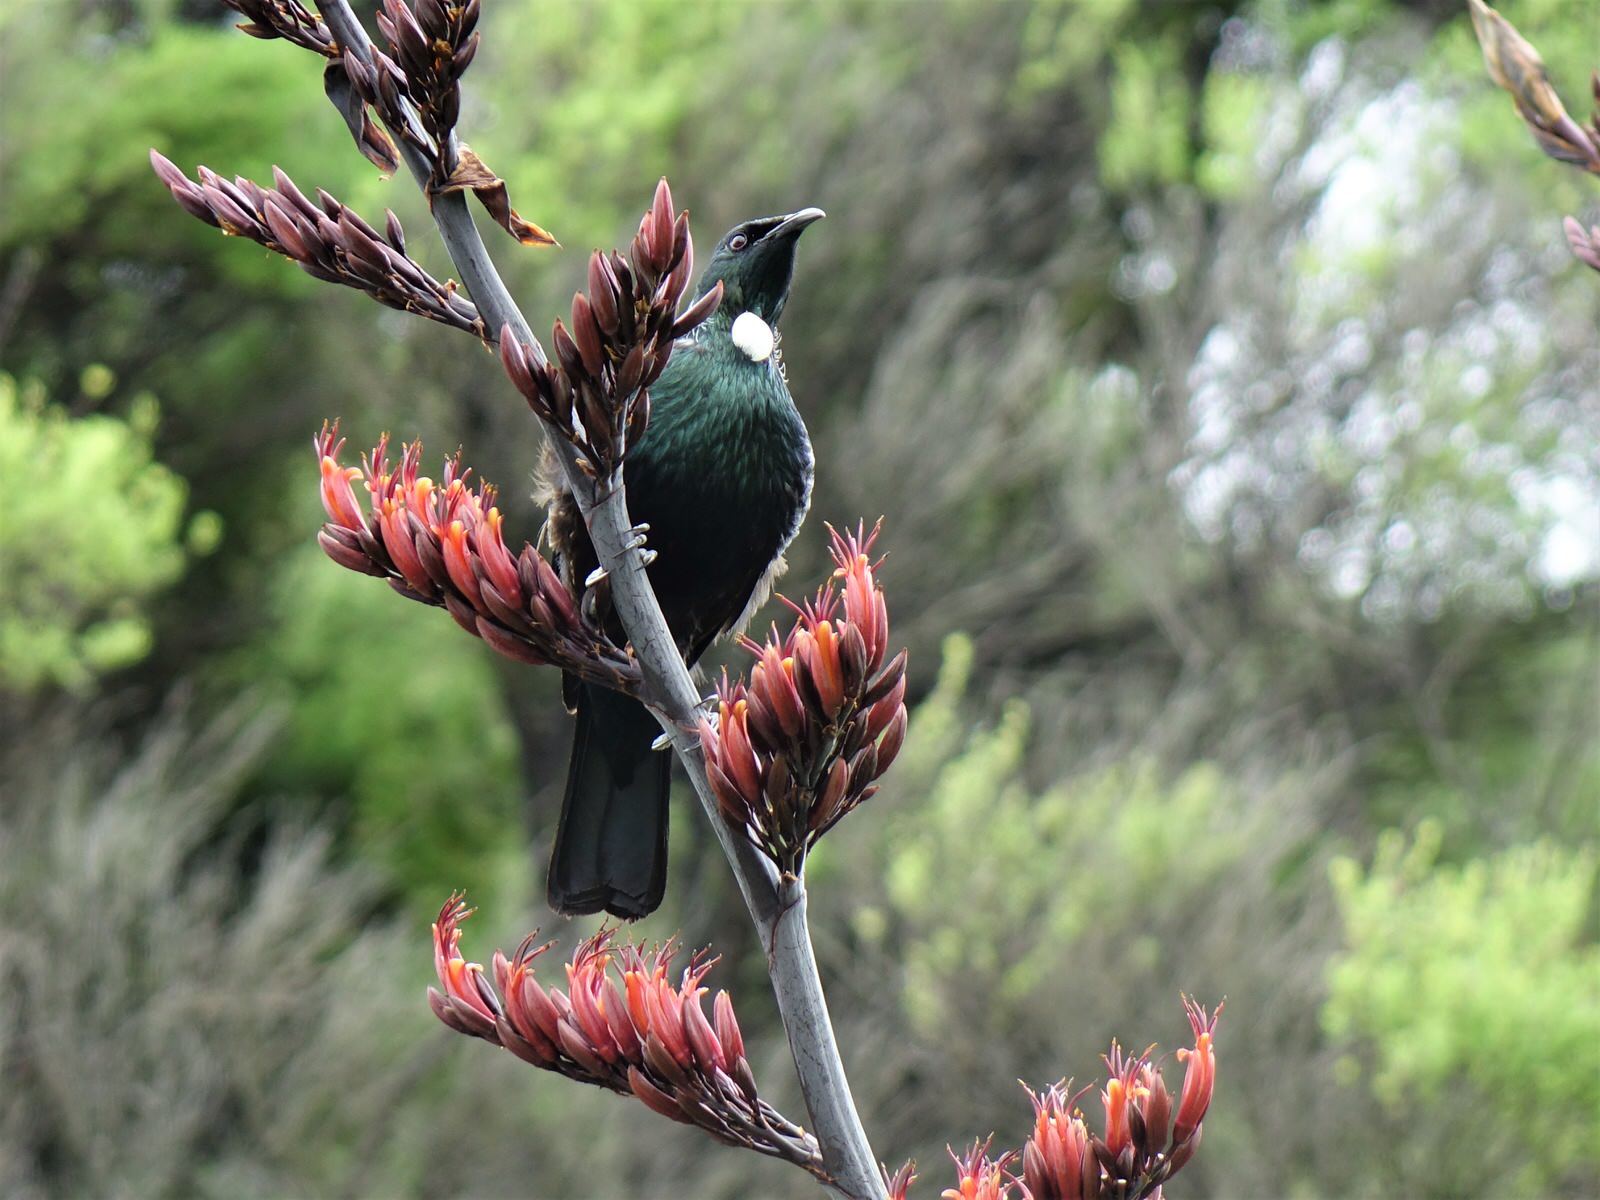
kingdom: Animalia
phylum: Chordata
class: Aves
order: Passeriformes
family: Meliphagidae
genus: Prosthemadera
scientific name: Prosthemadera novaeseelandiae
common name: Tui
